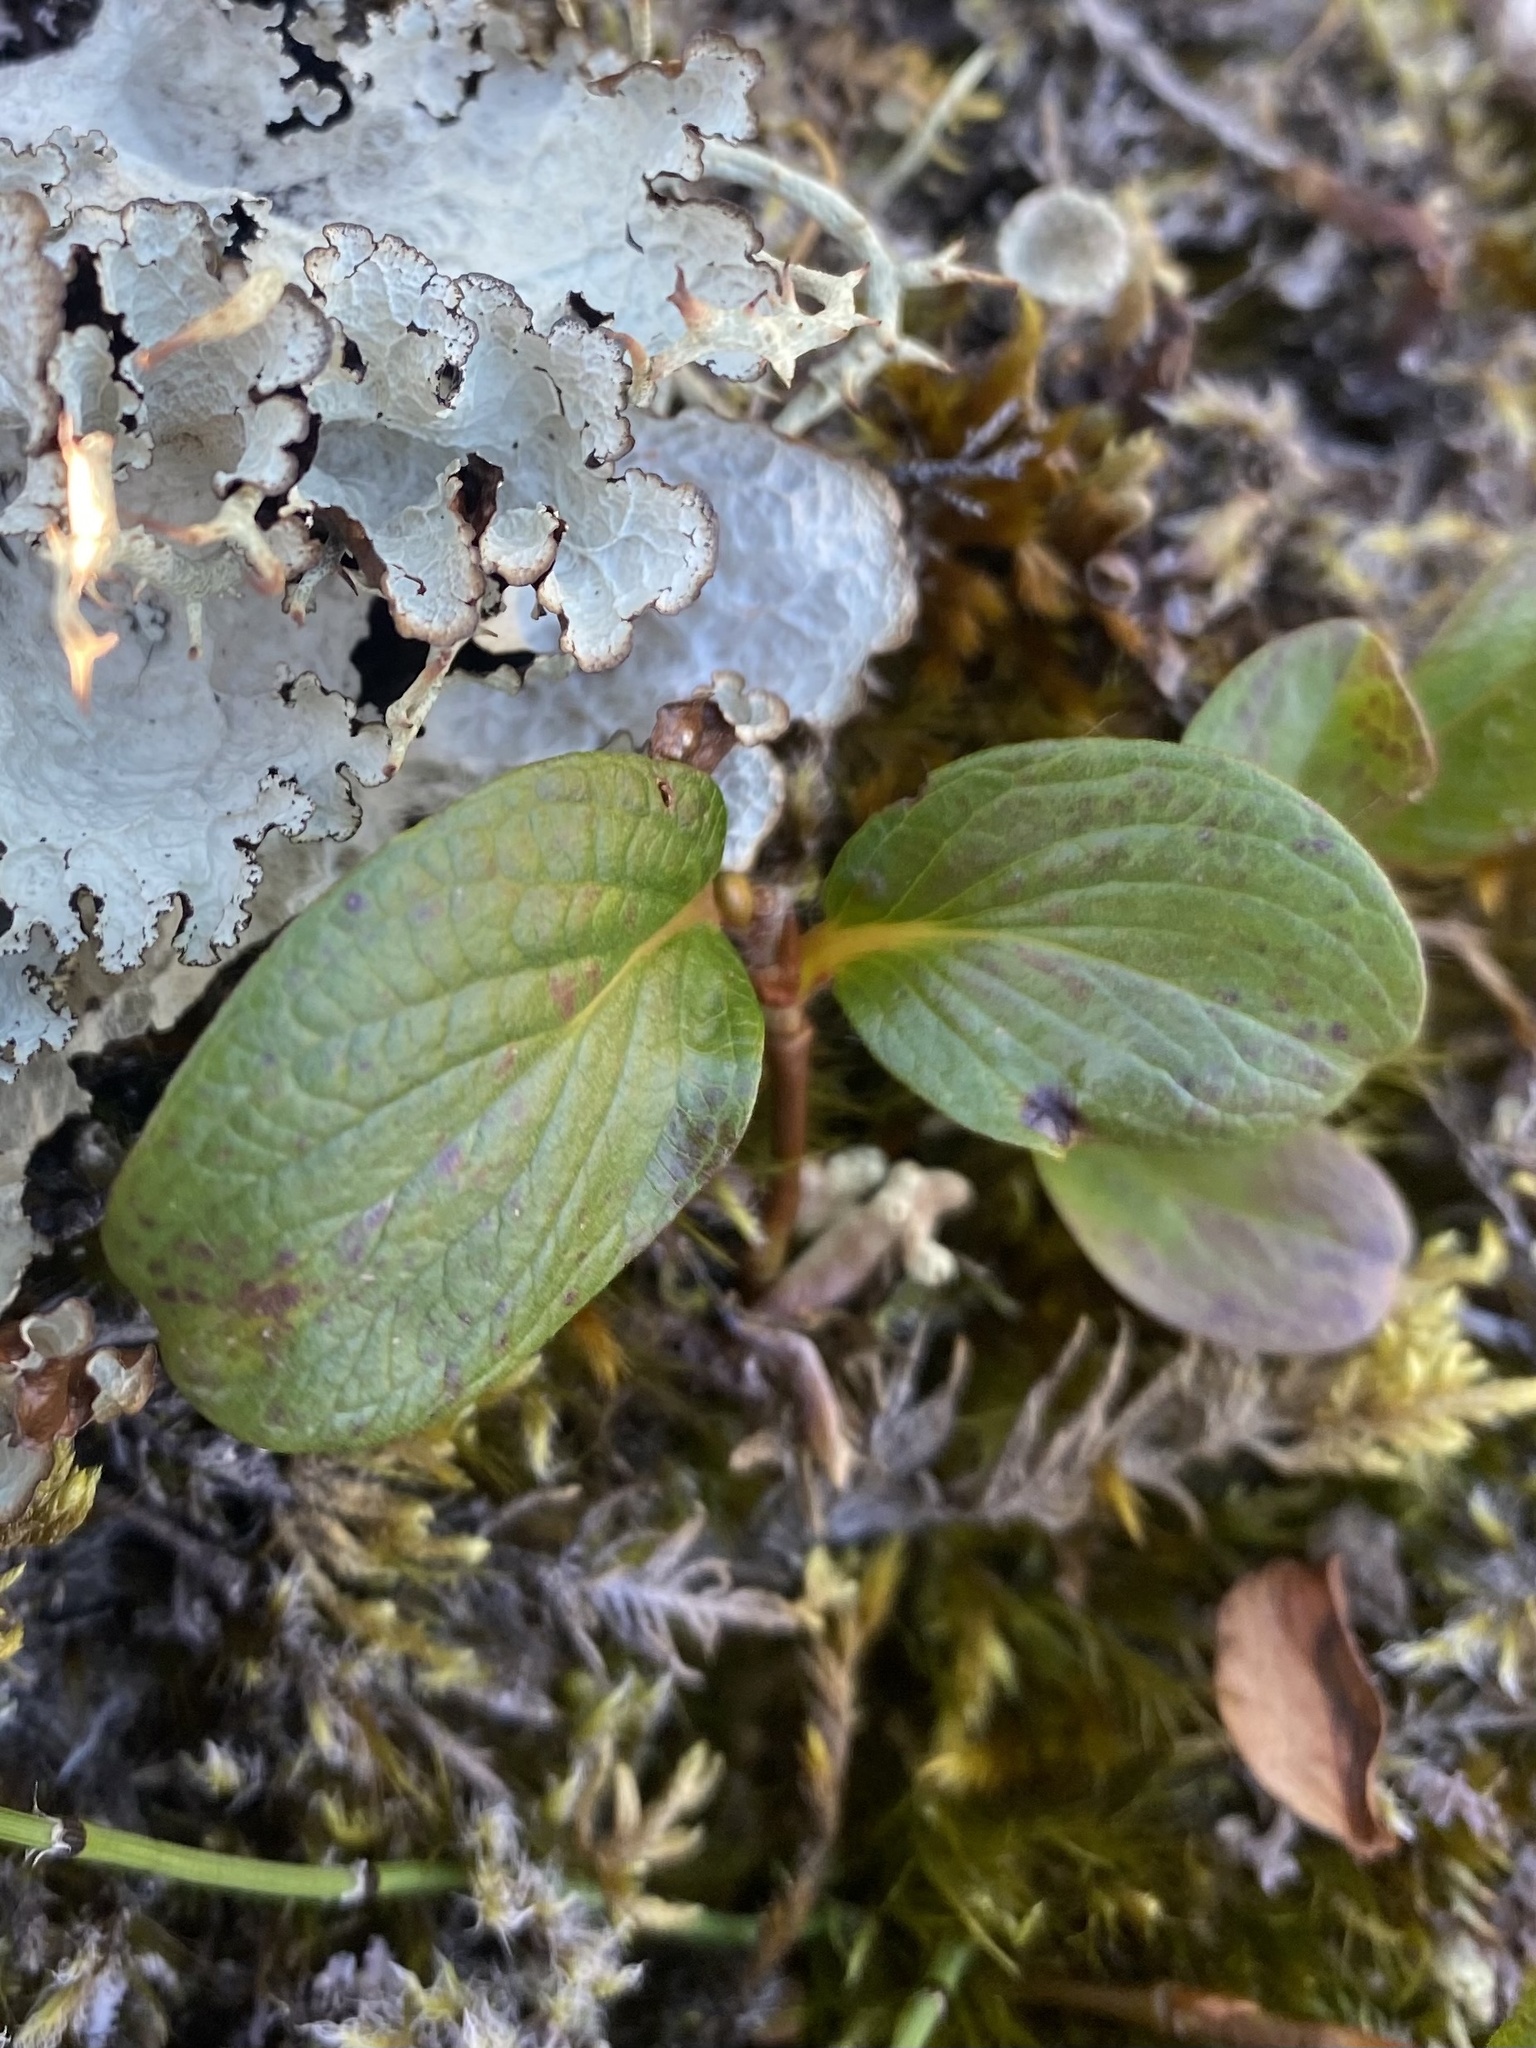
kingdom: Plantae
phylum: Tracheophyta
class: Magnoliopsida
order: Malpighiales
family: Salicaceae
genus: Salix
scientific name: Salix polaris
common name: Polar willow
